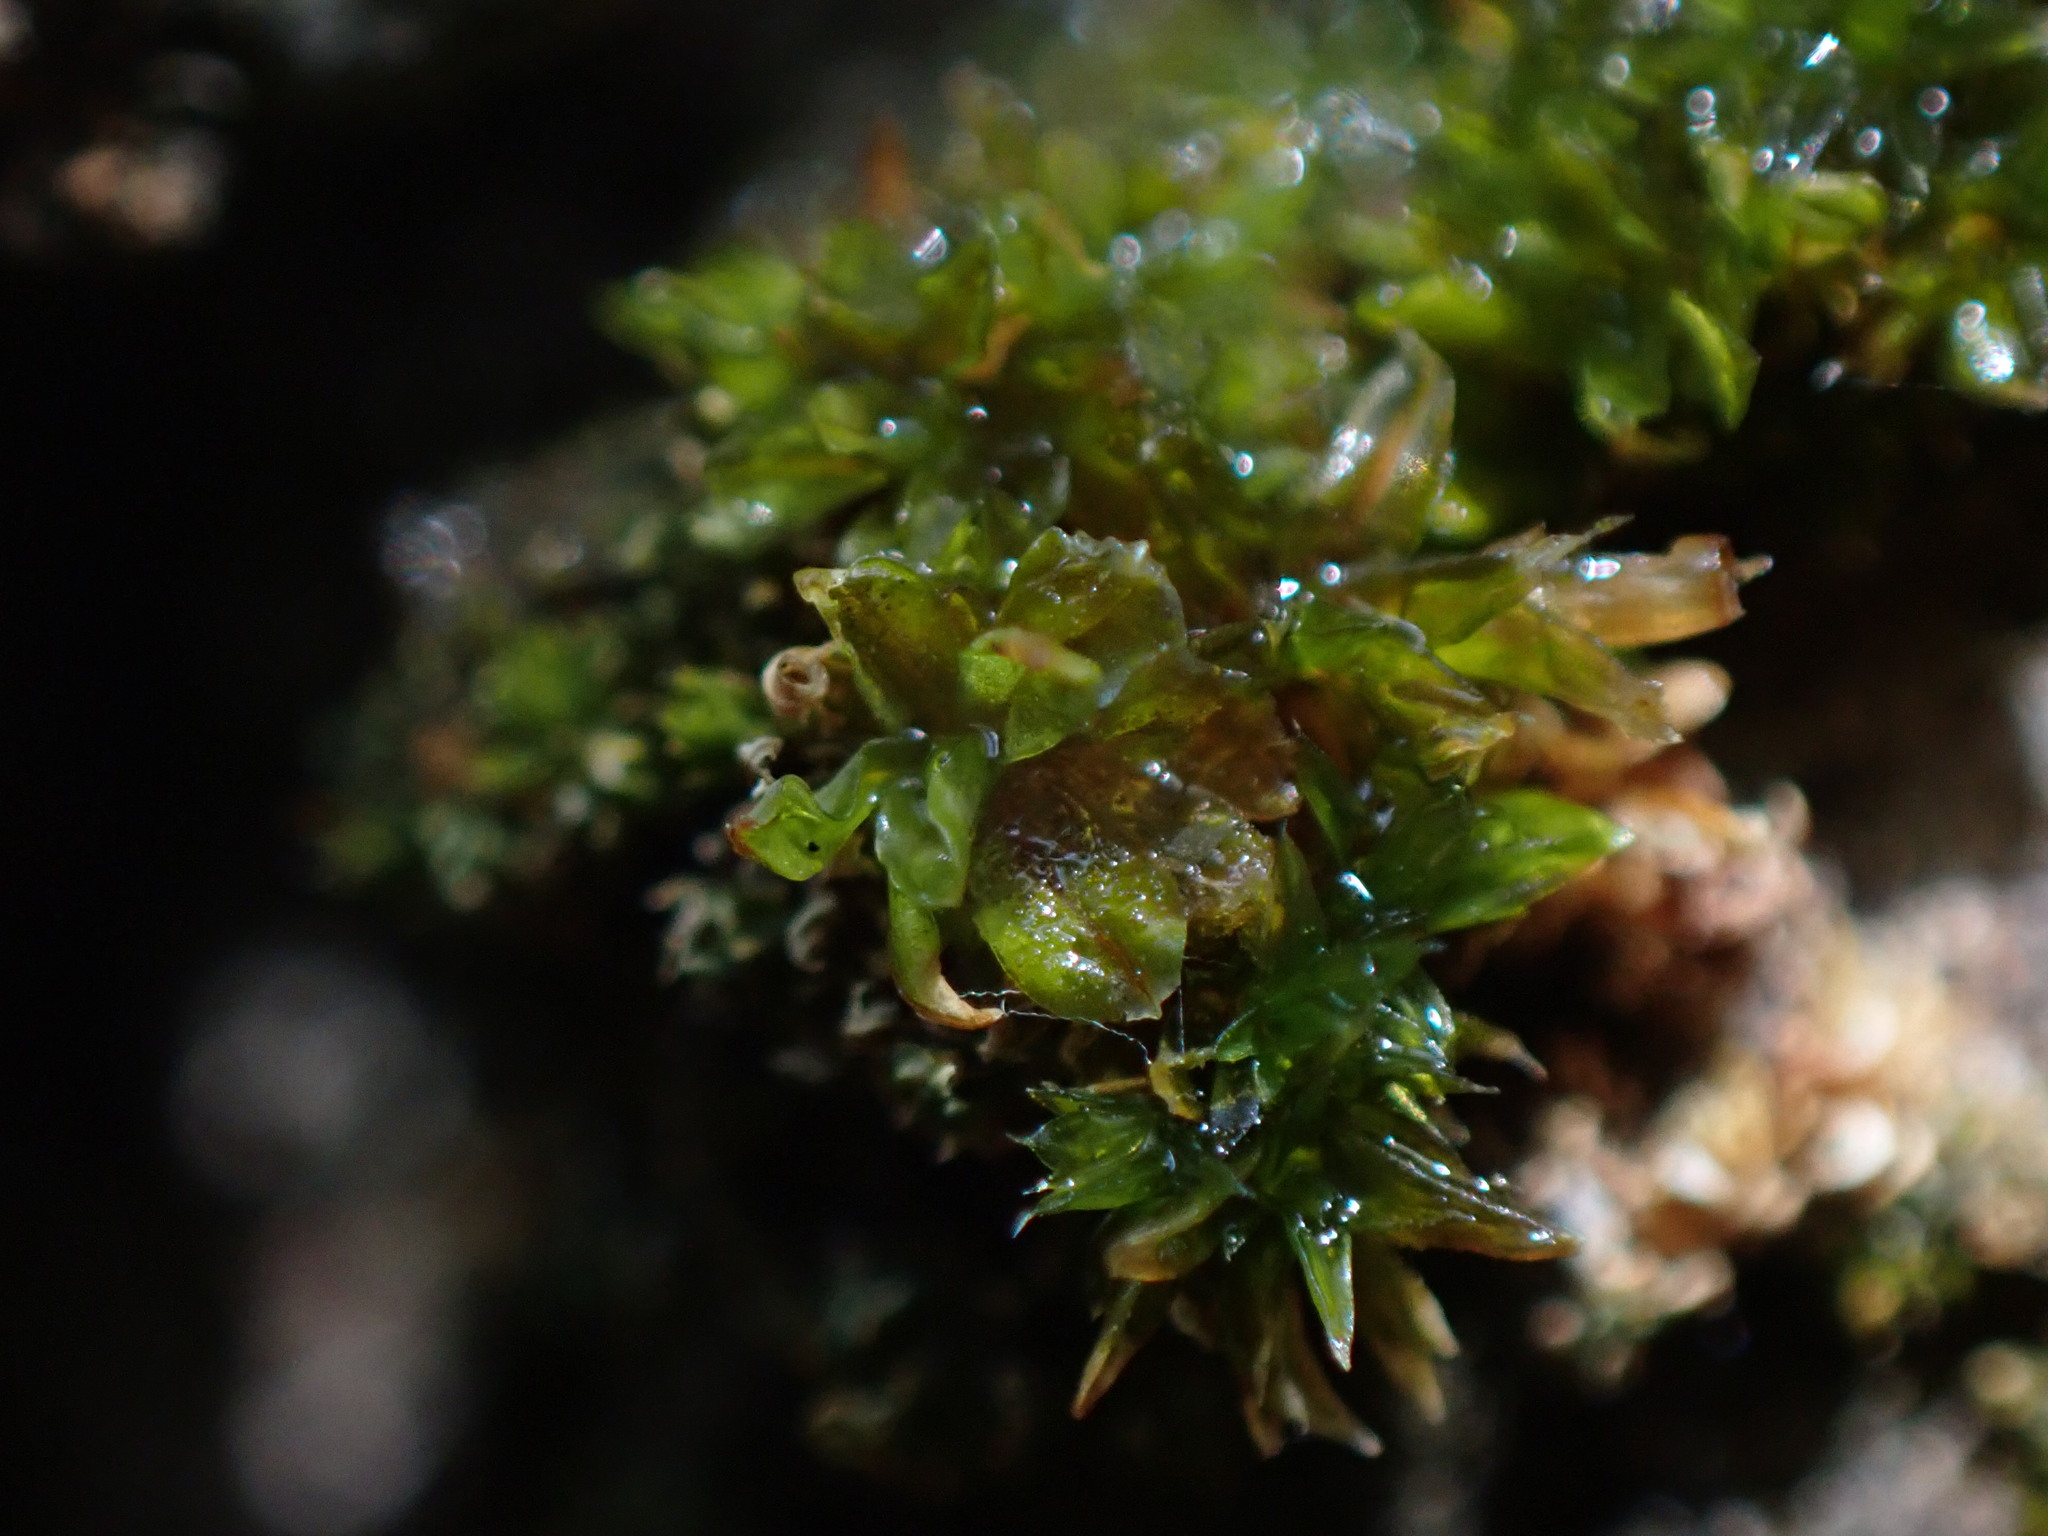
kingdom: Plantae
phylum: Bryophyta
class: Bryopsida
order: Pottiales
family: Pottiaceae
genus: Syntrichia
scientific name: Syntrichia latifolia
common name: Water screw-moss
